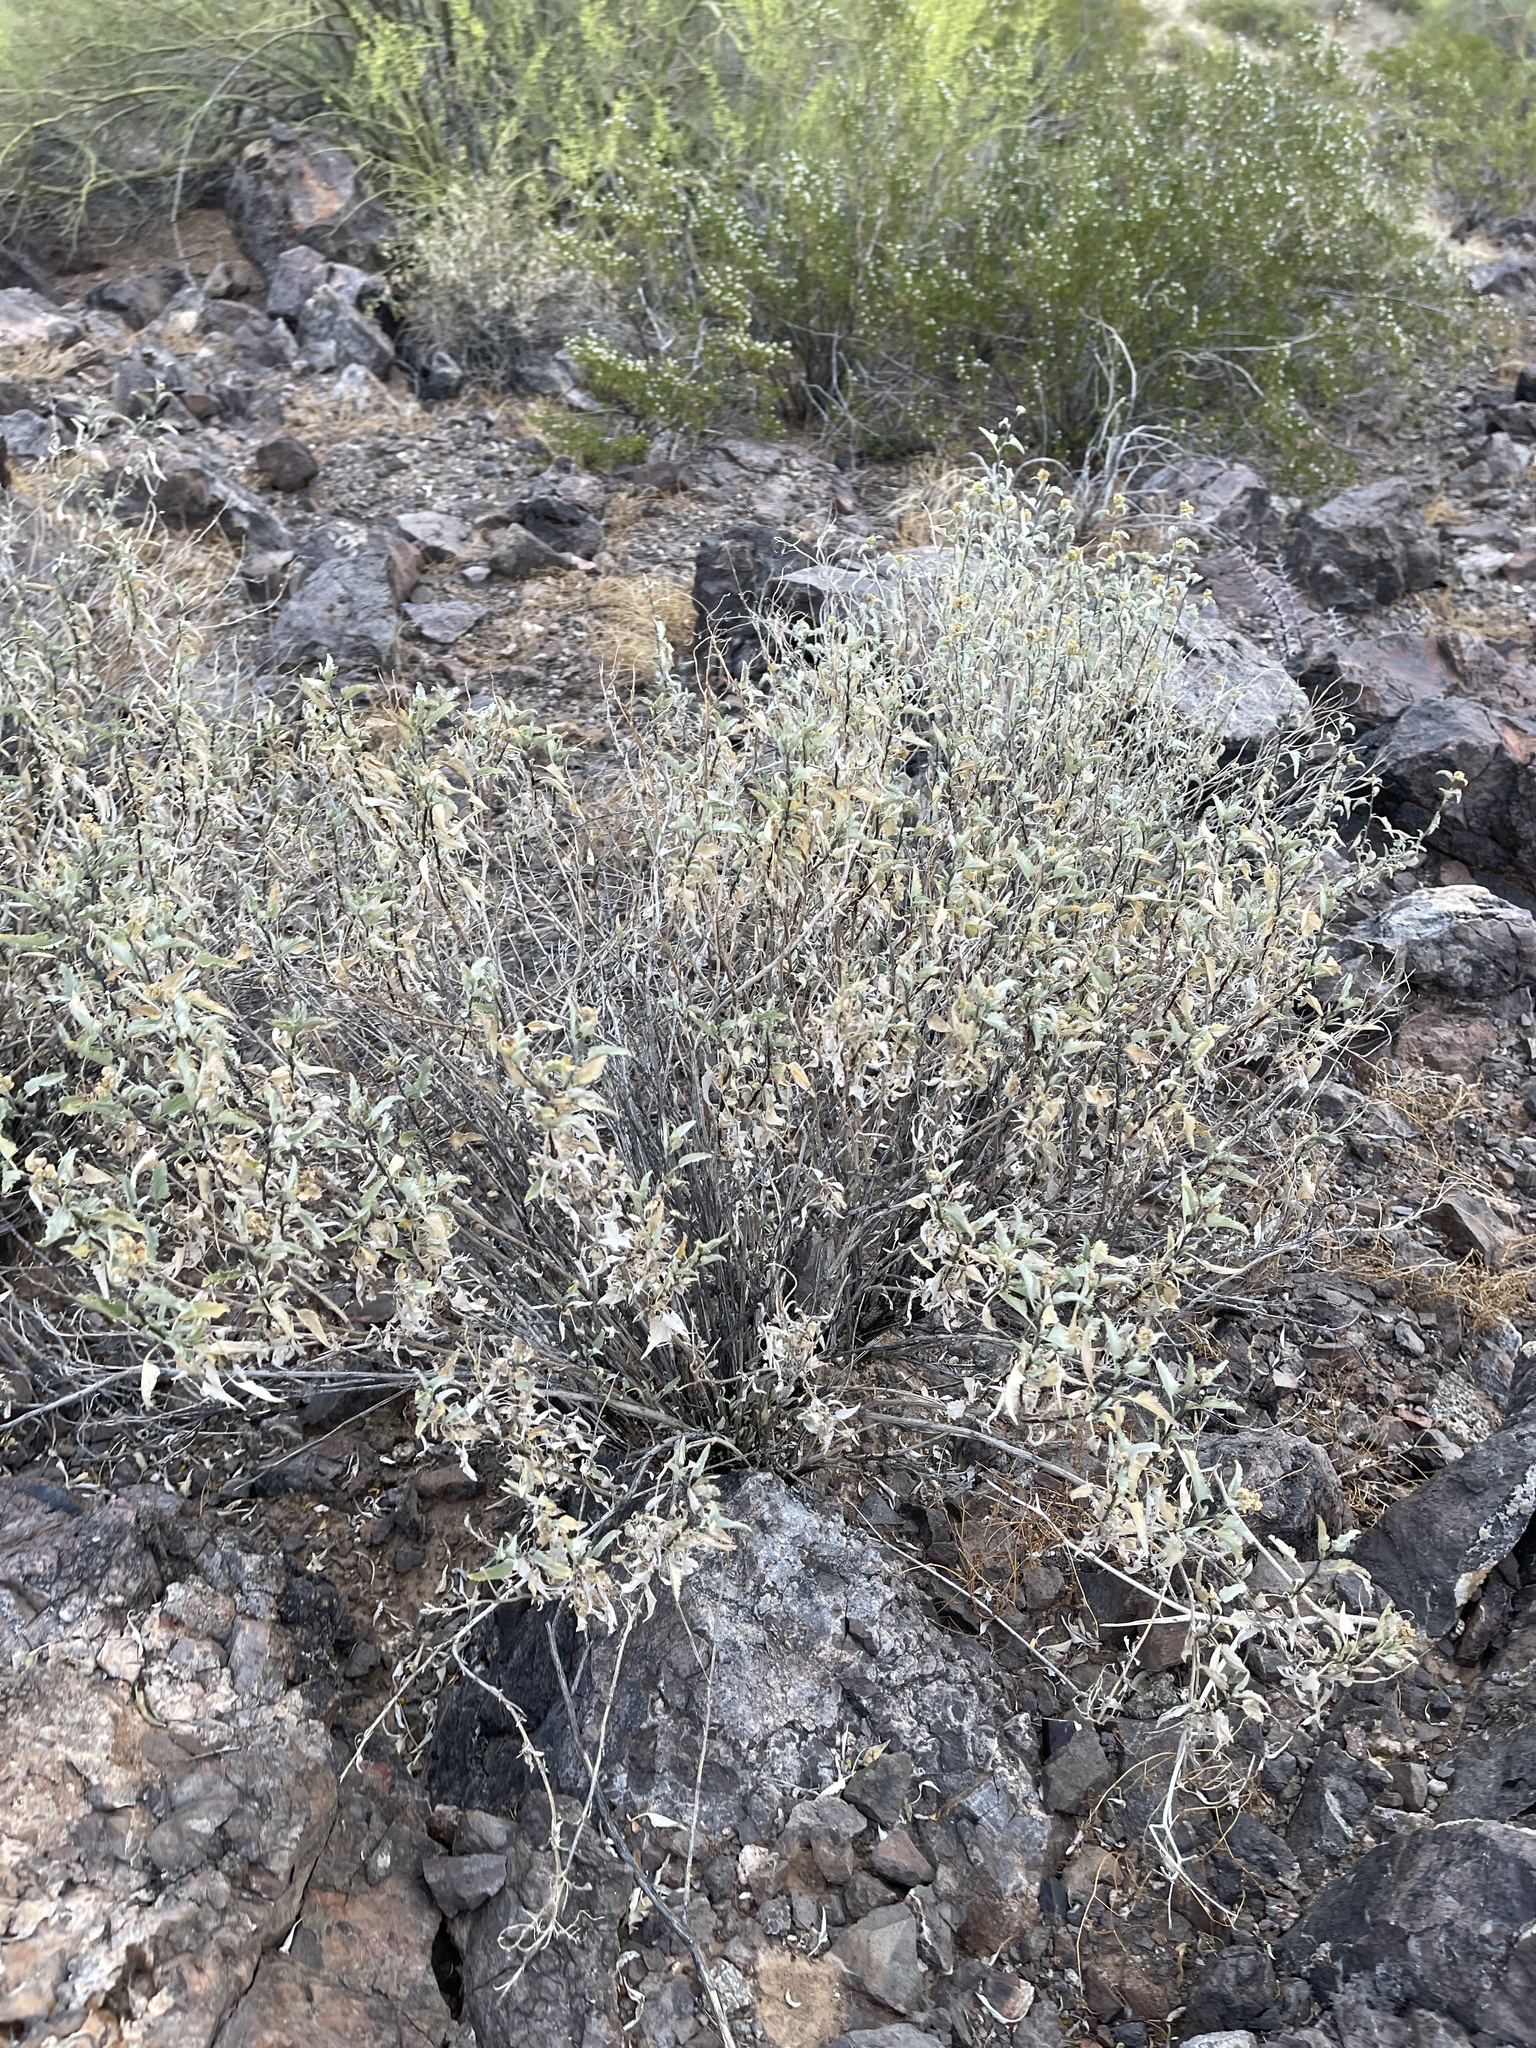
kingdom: Plantae
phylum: Tracheophyta
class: Magnoliopsida
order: Asterales
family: Asteraceae
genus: Ambrosia
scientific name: Ambrosia deltoidea
